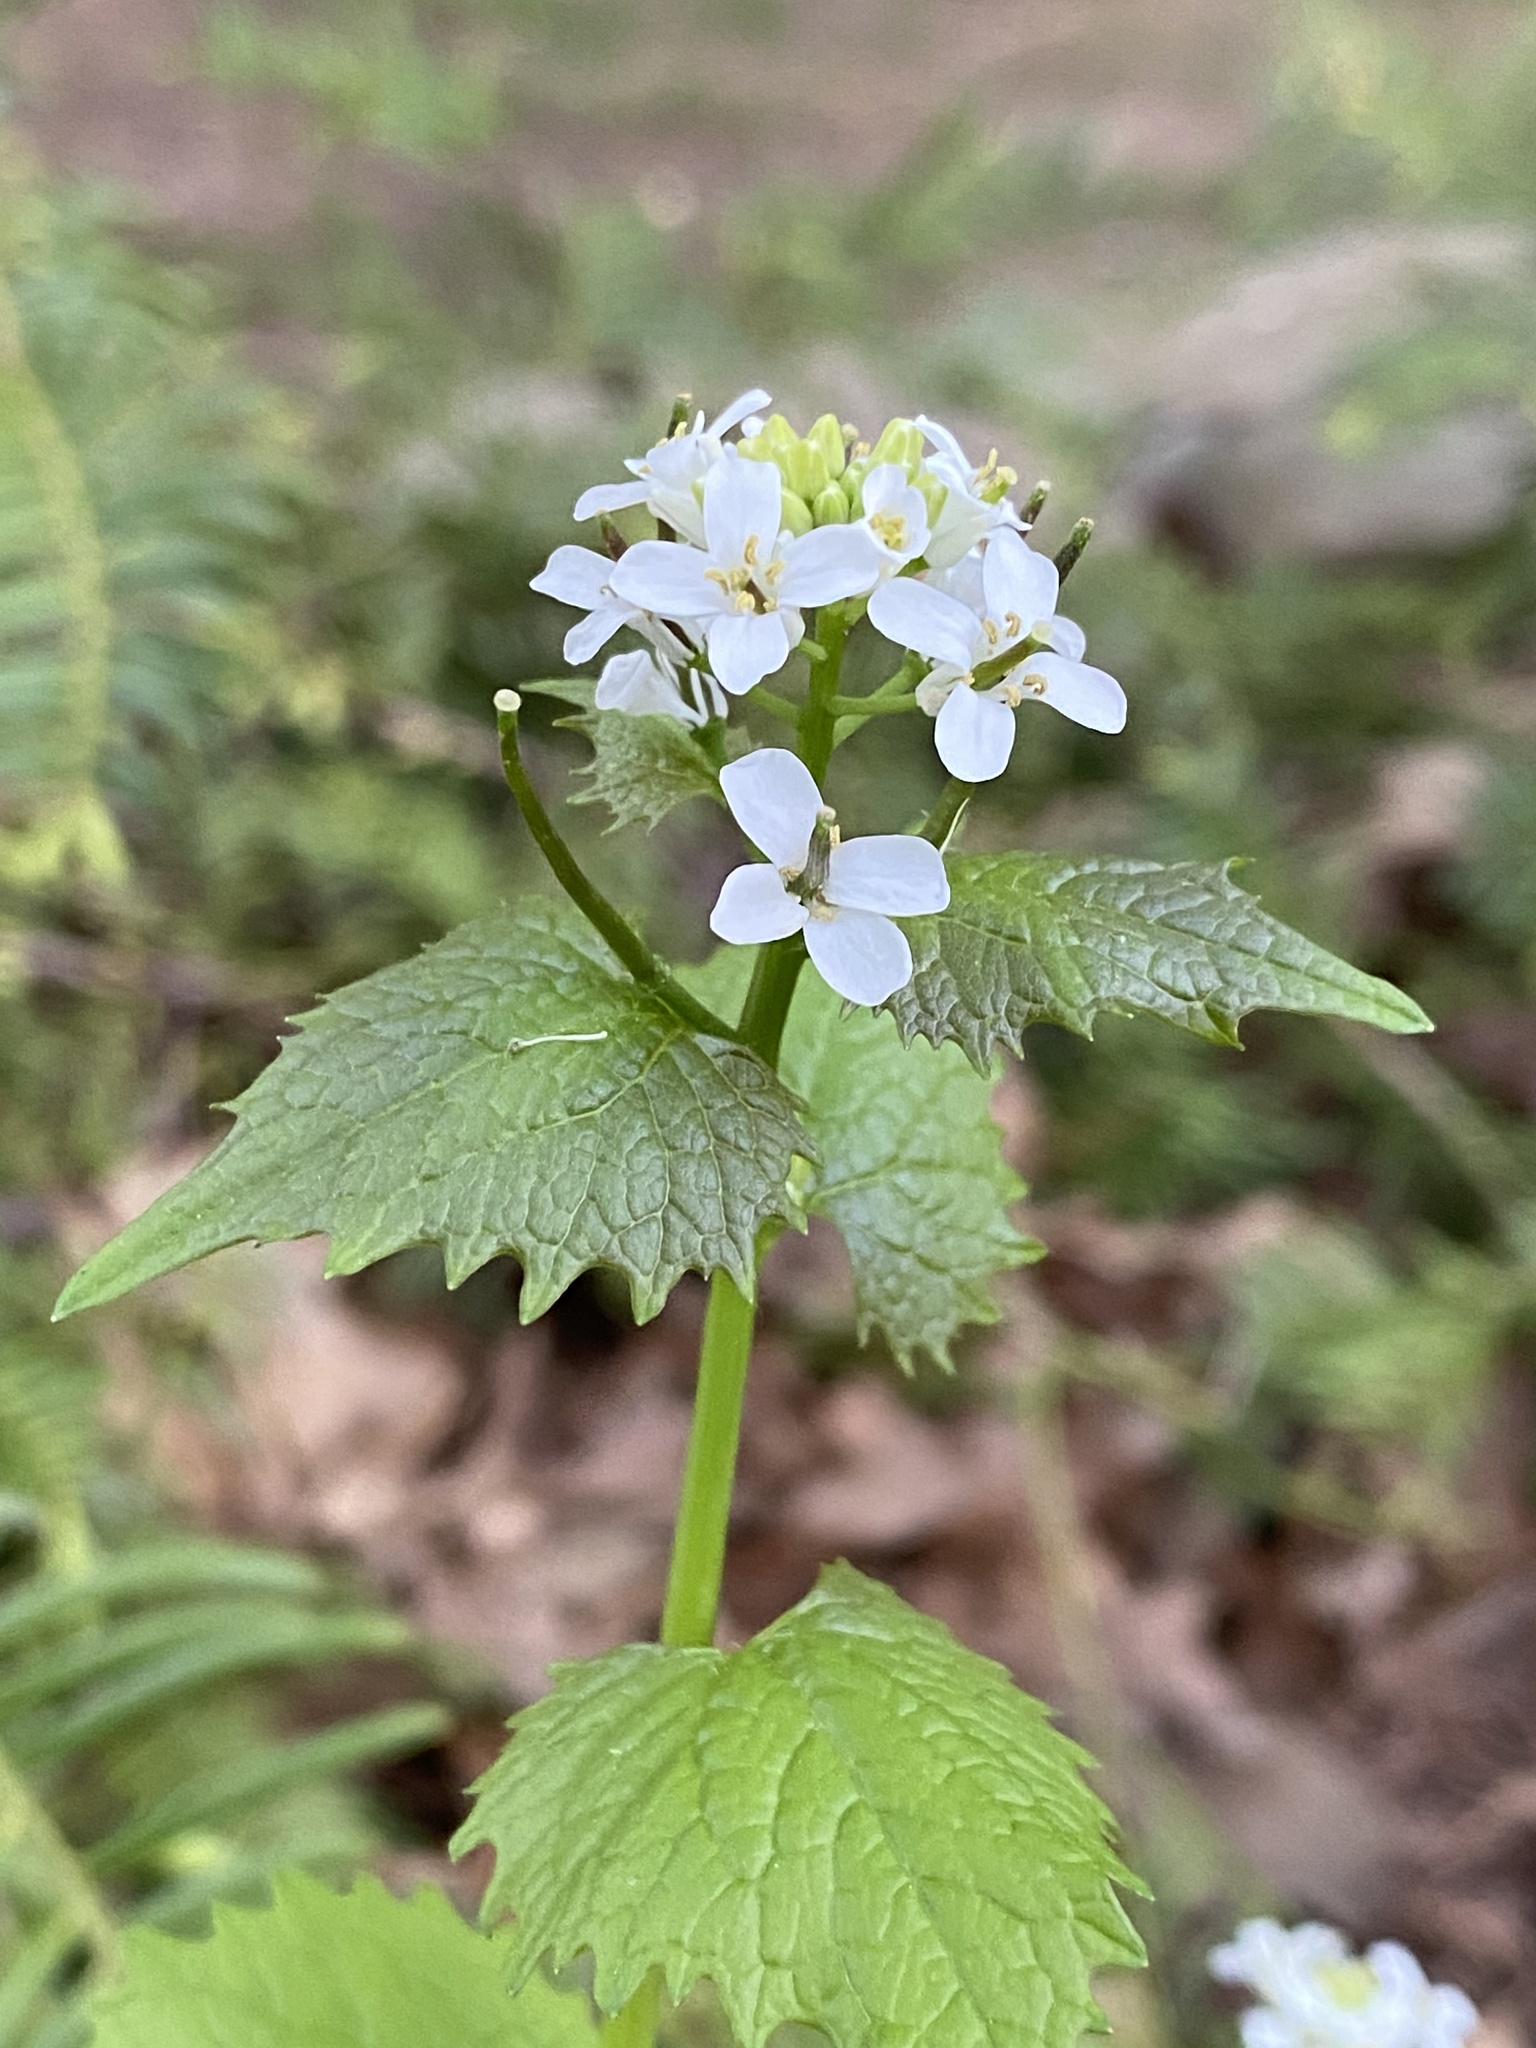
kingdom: Plantae
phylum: Tracheophyta
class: Magnoliopsida
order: Brassicales
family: Brassicaceae
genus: Alliaria
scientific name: Alliaria petiolata
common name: Garlic mustard
